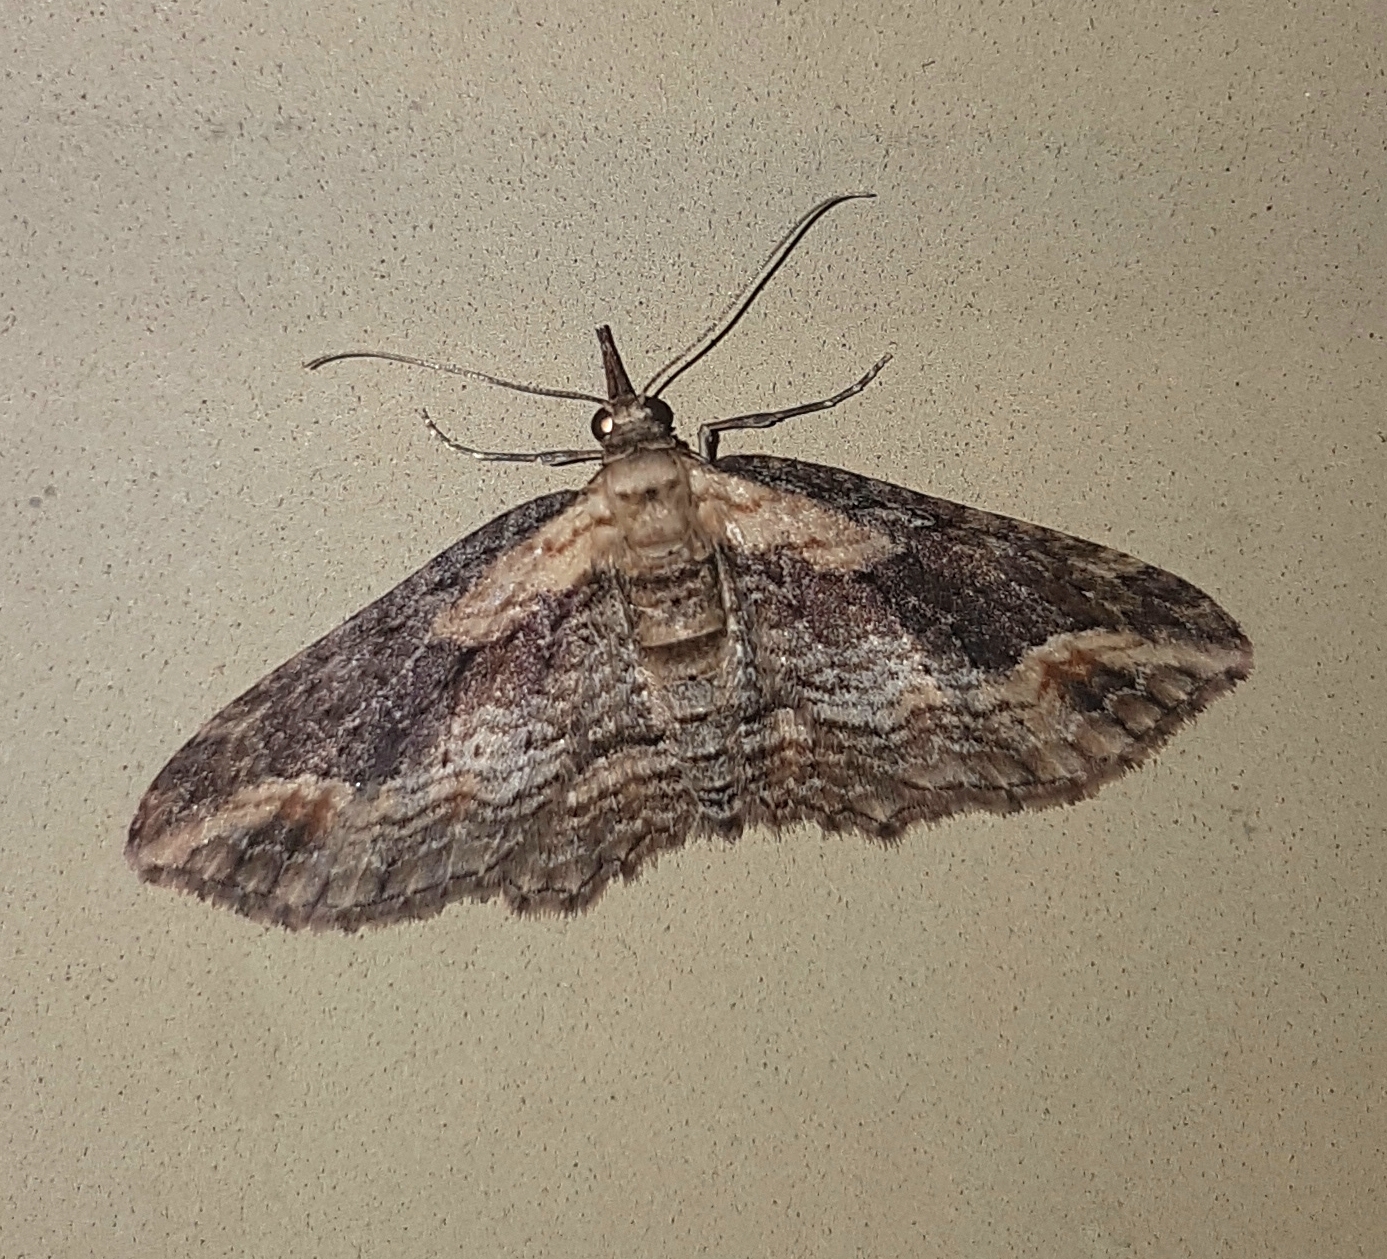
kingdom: Animalia
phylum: Arthropoda
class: Insecta
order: Lepidoptera
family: Geometridae
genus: Chloroclystis
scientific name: Chloroclystis filata
